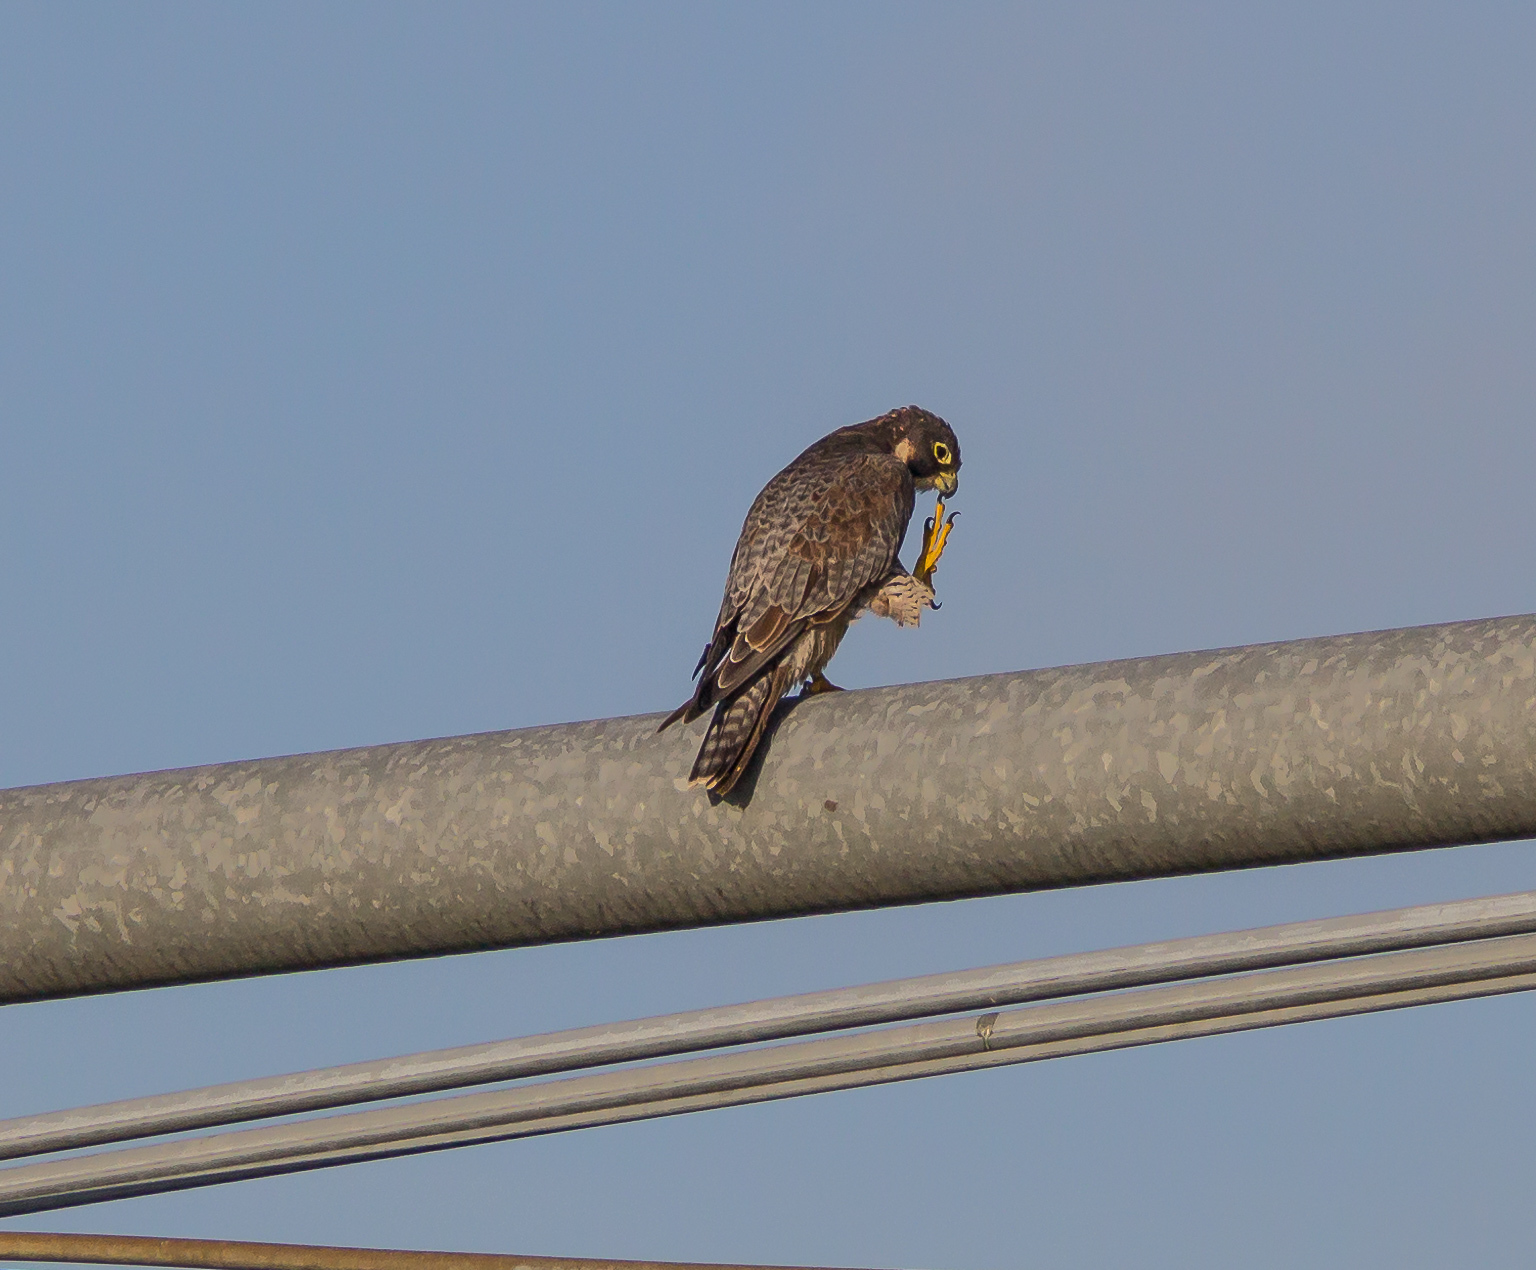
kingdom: Animalia
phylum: Chordata
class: Aves
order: Falconiformes
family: Falconidae
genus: Falco
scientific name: Falco peregrinus
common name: Peregrine falcon
